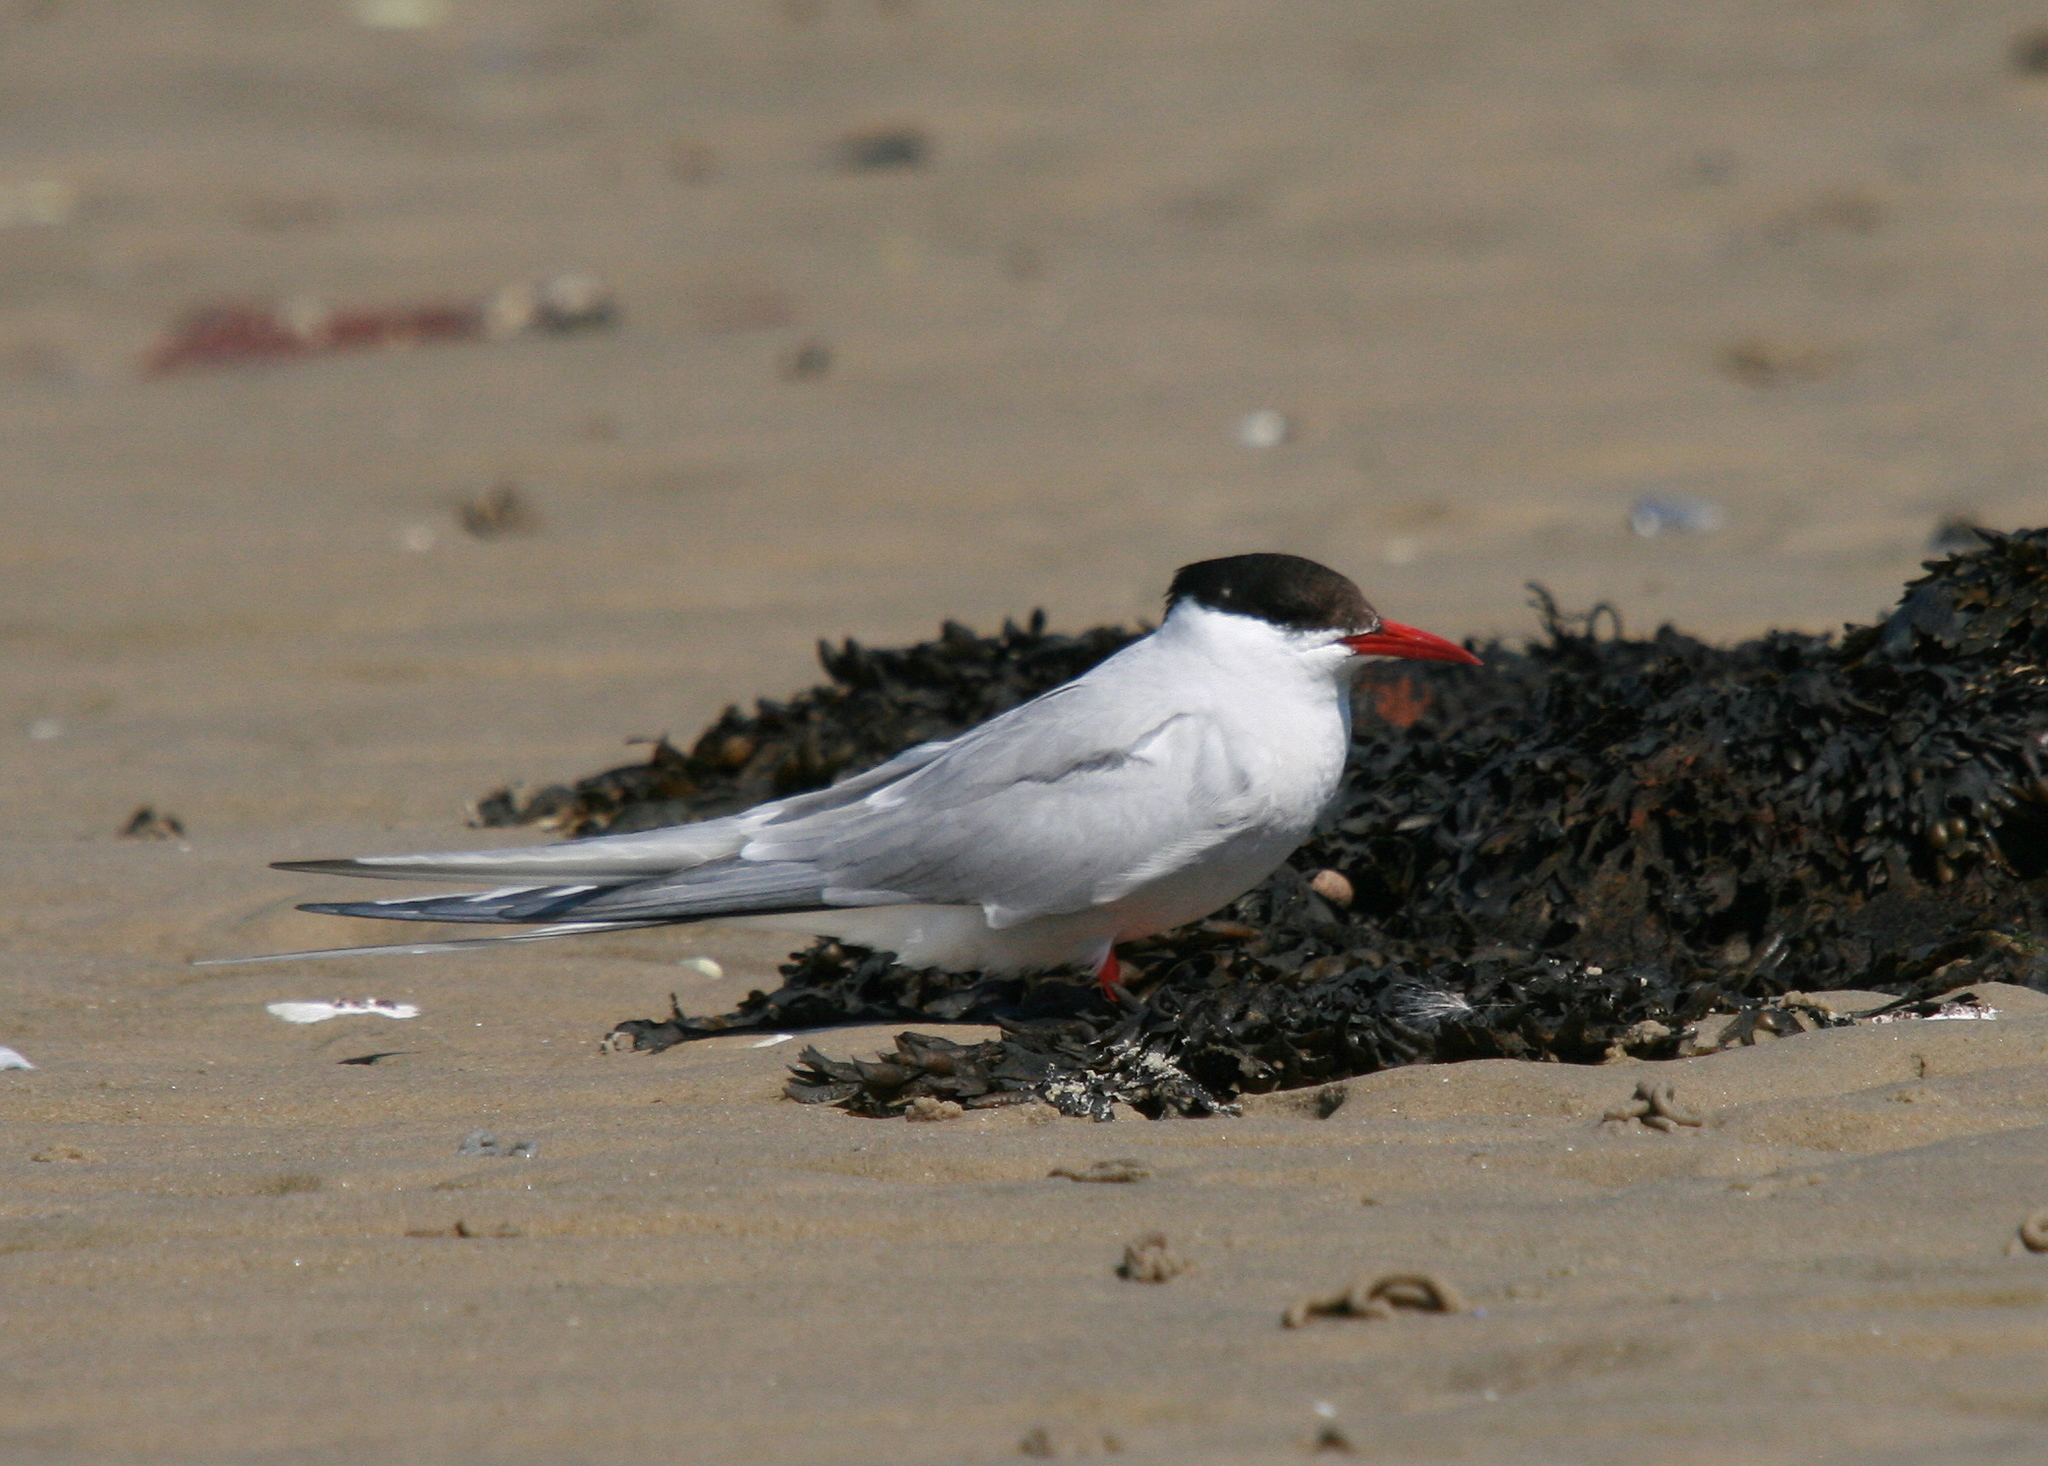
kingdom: Animalia
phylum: Chordata
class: Aves
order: Charadriiformes
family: Laridae
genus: Sterna
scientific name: Sterna paradisaea
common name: Arctic tern
